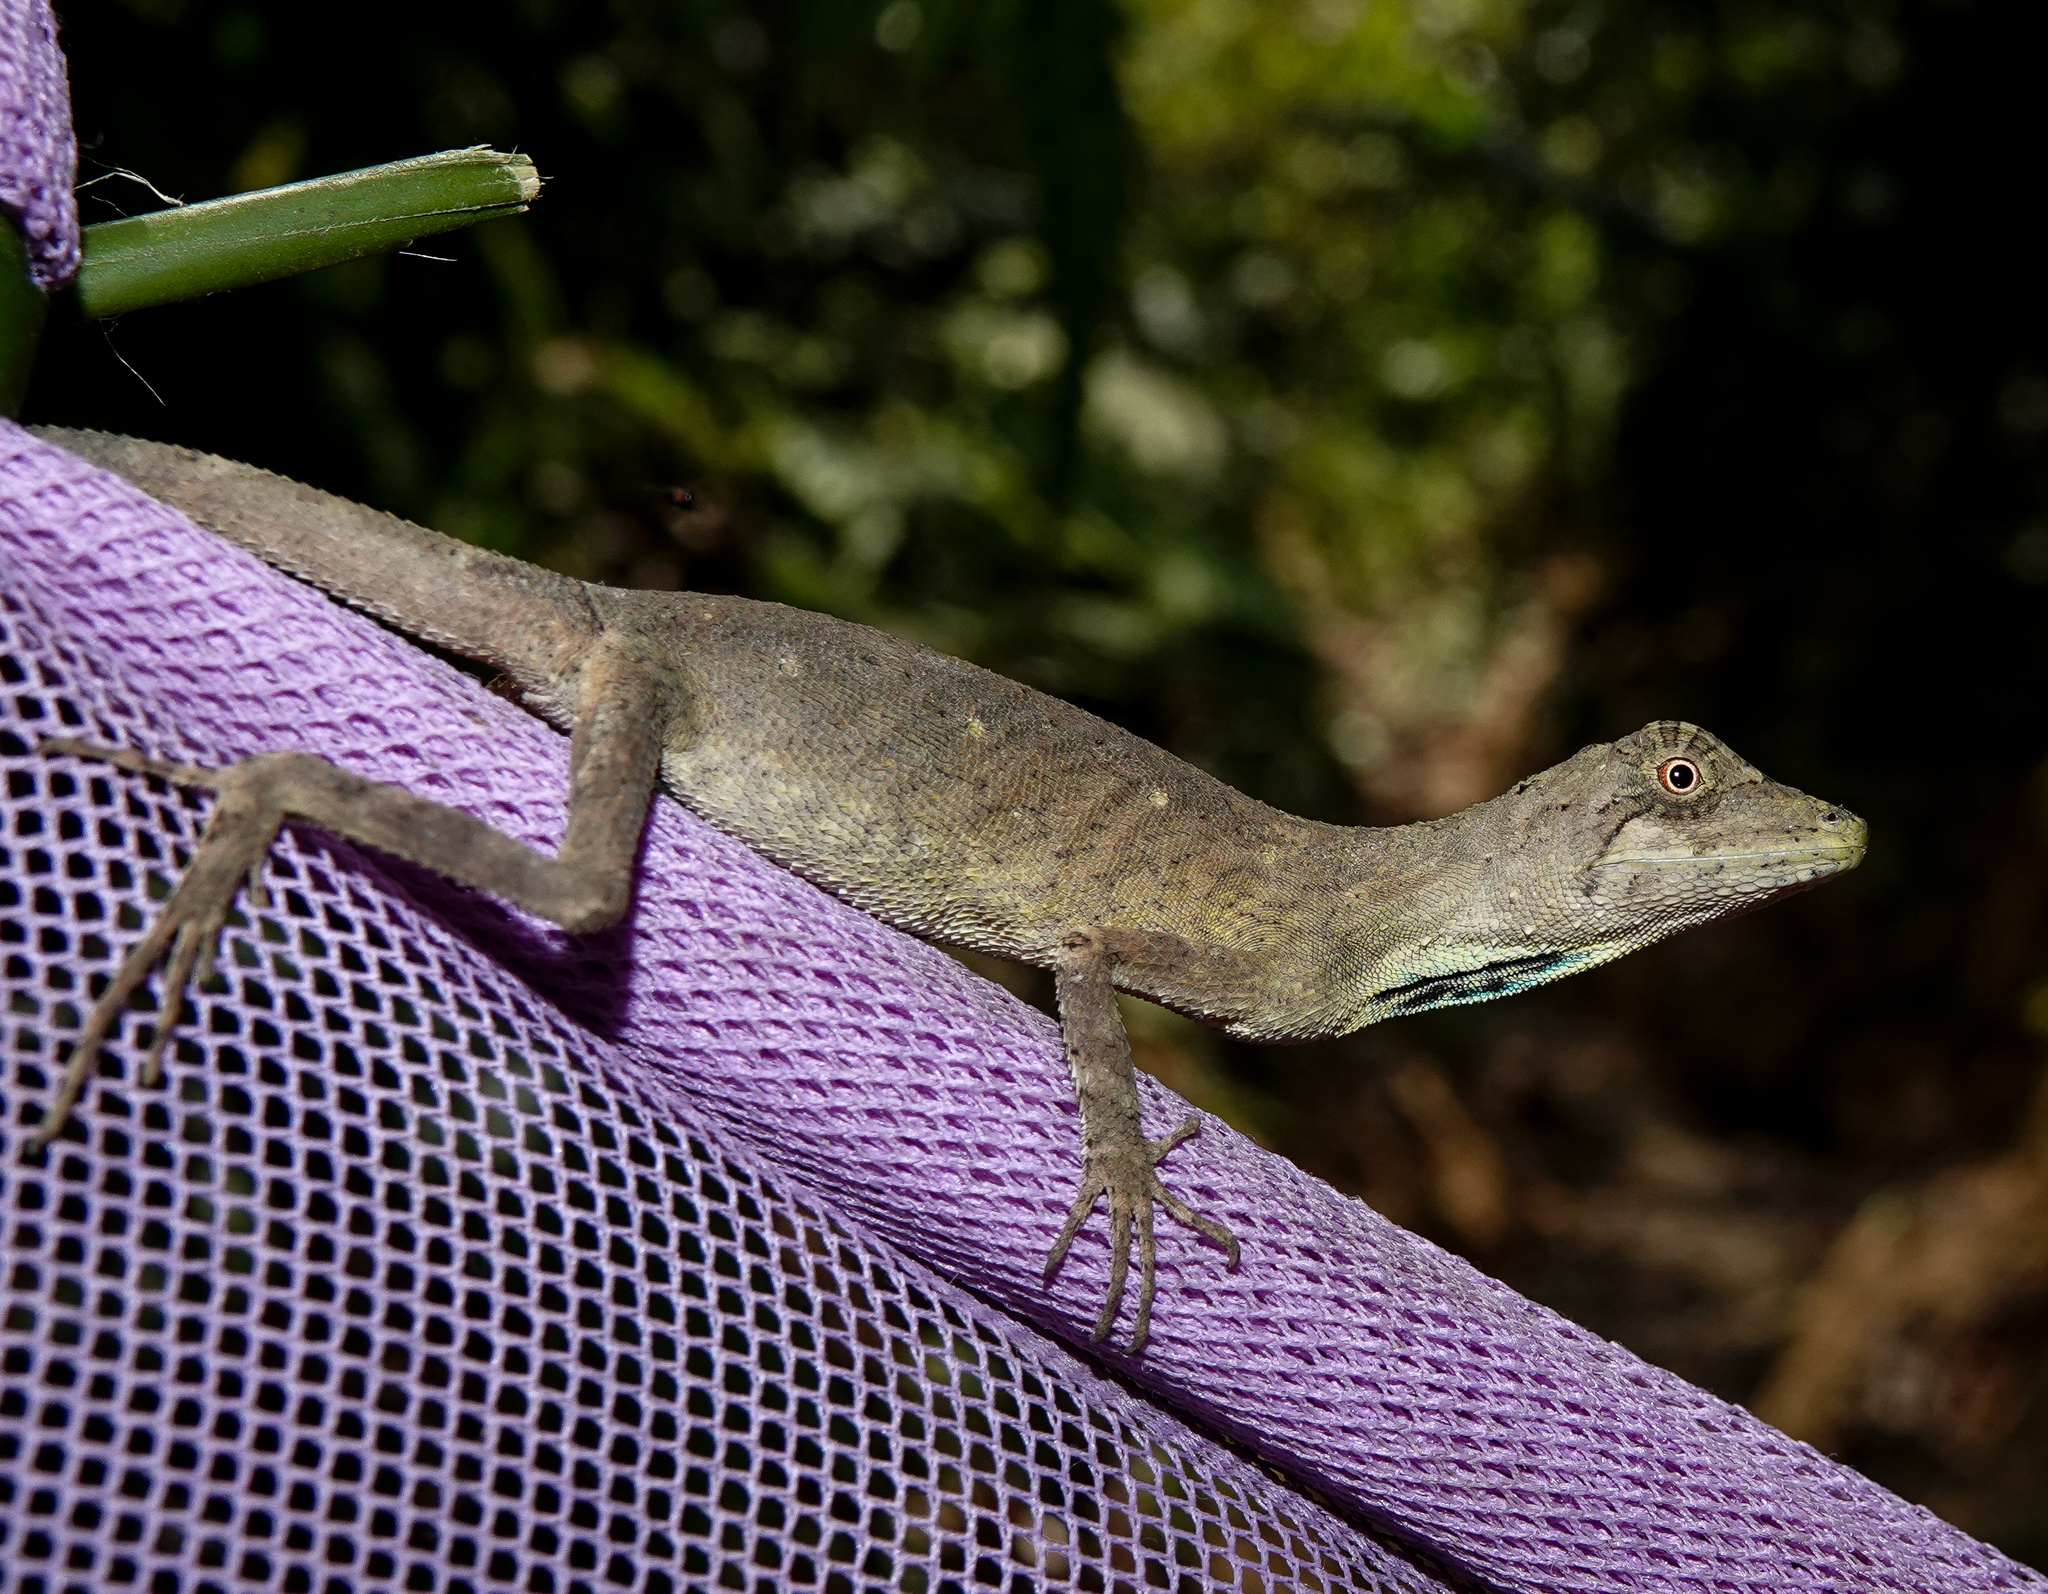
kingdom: Animalia
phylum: Chordata
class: Squamata
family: Agamidae
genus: Ptyctolaemus
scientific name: Ptyctolaemus gularis
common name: Green fan-throated lizard
